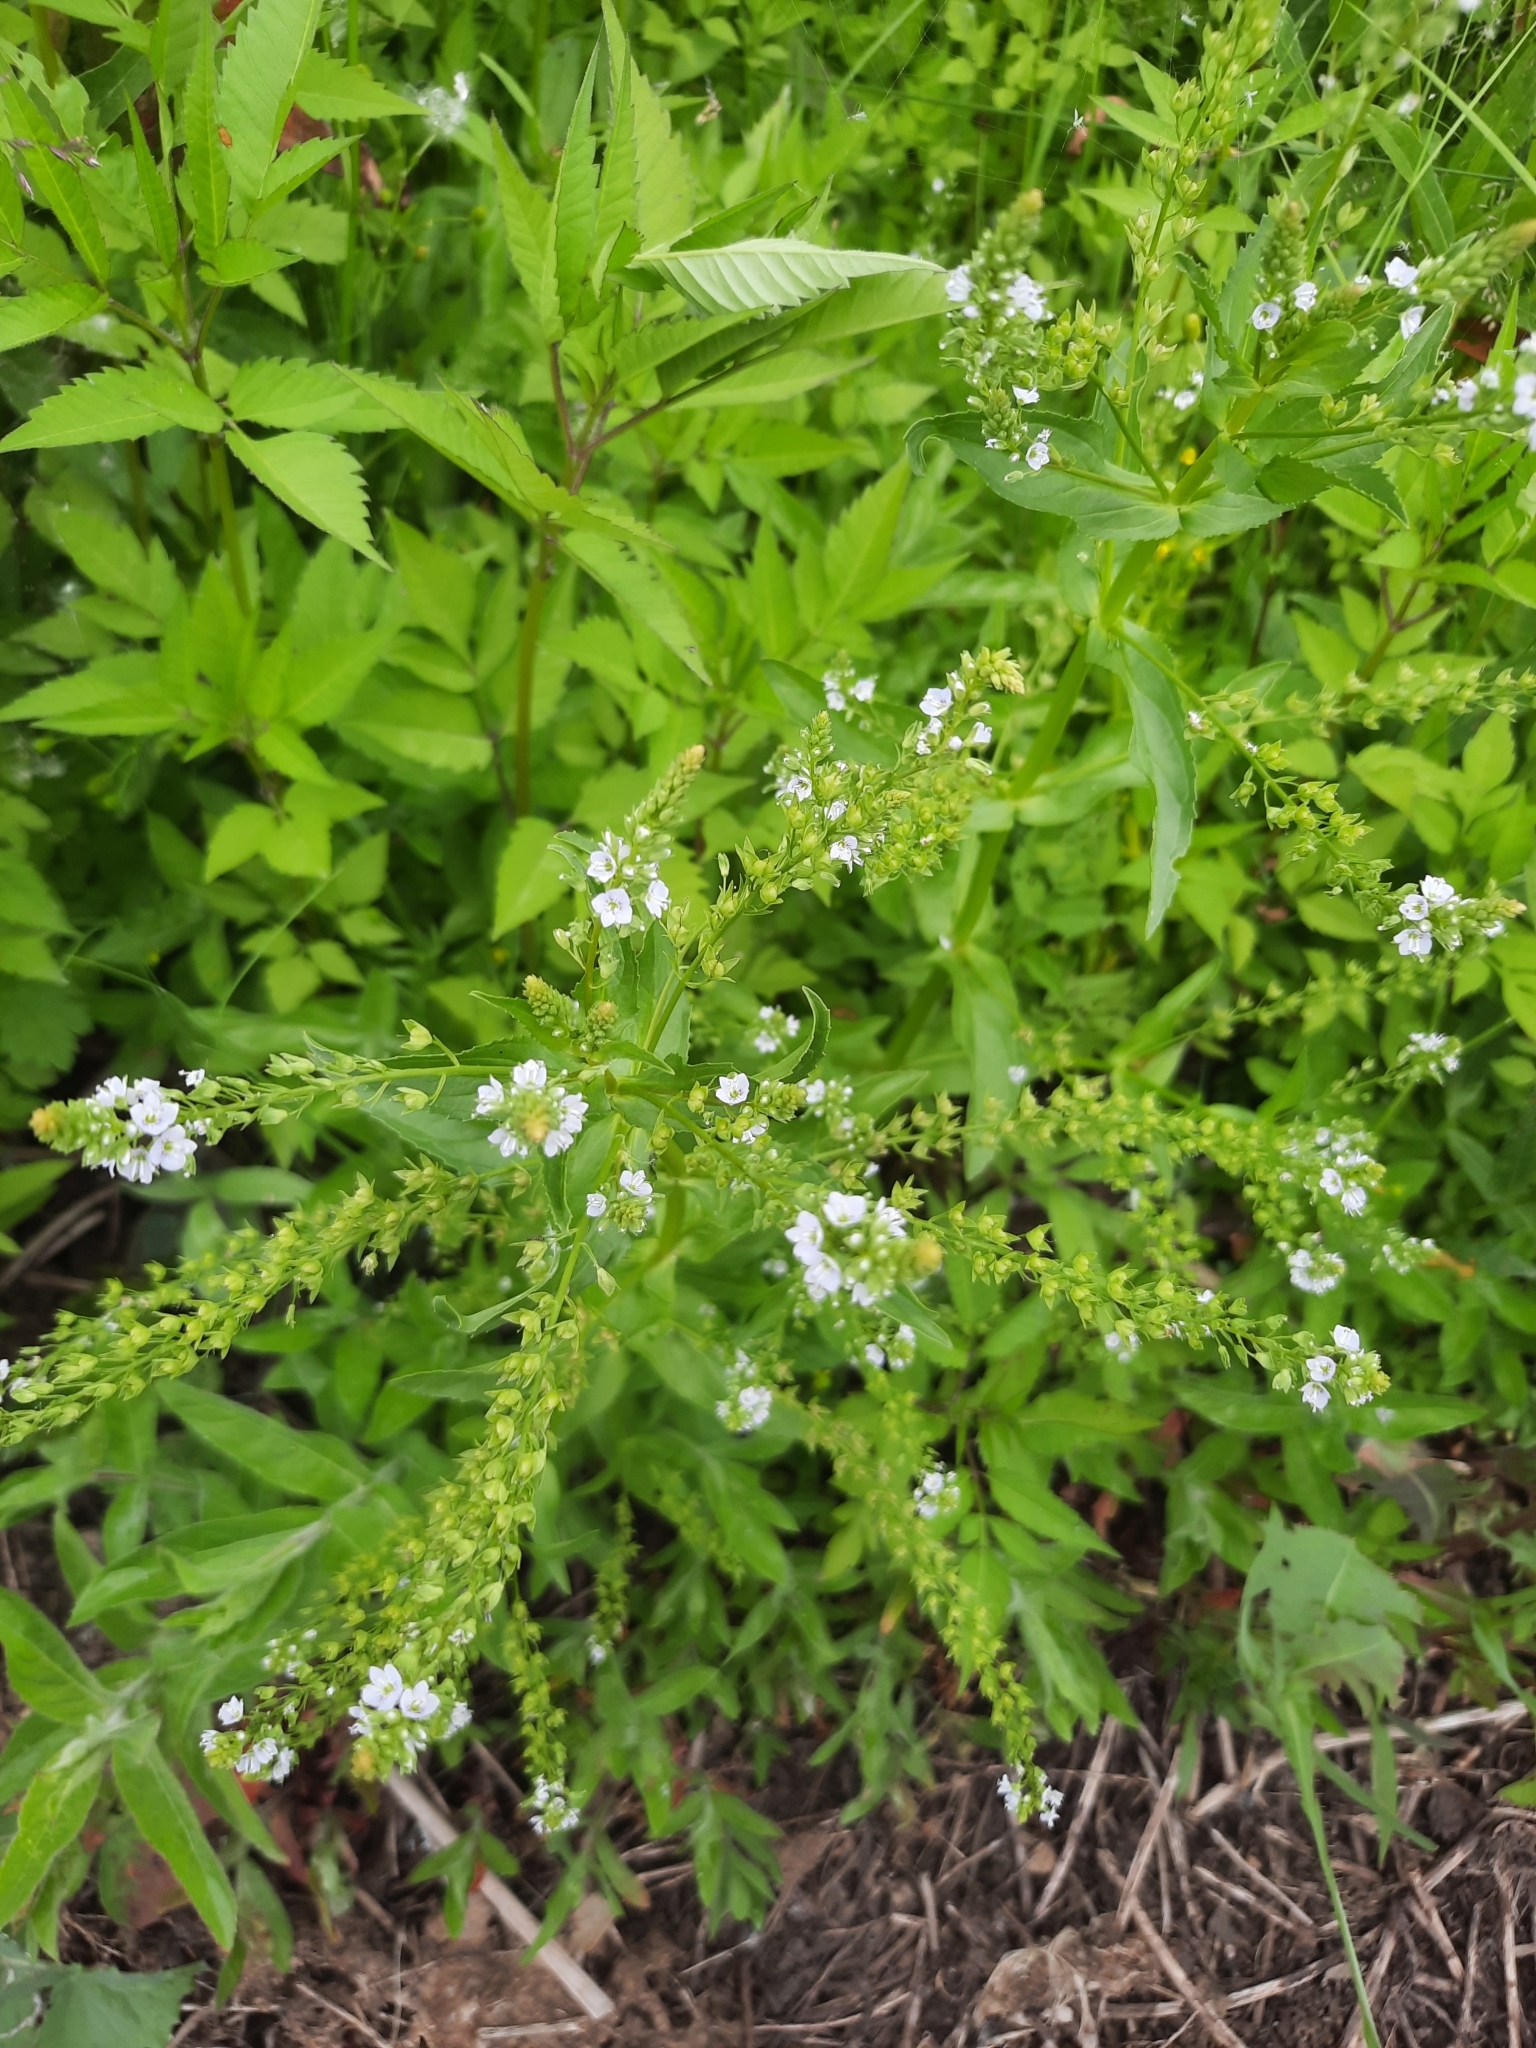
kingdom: Plantae
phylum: Tracheophyta
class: Magnoliopsida
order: Lamiales
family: Plantaginaceae
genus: Veronica
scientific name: Veronica anagallis-aquatica
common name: Water speedwell
